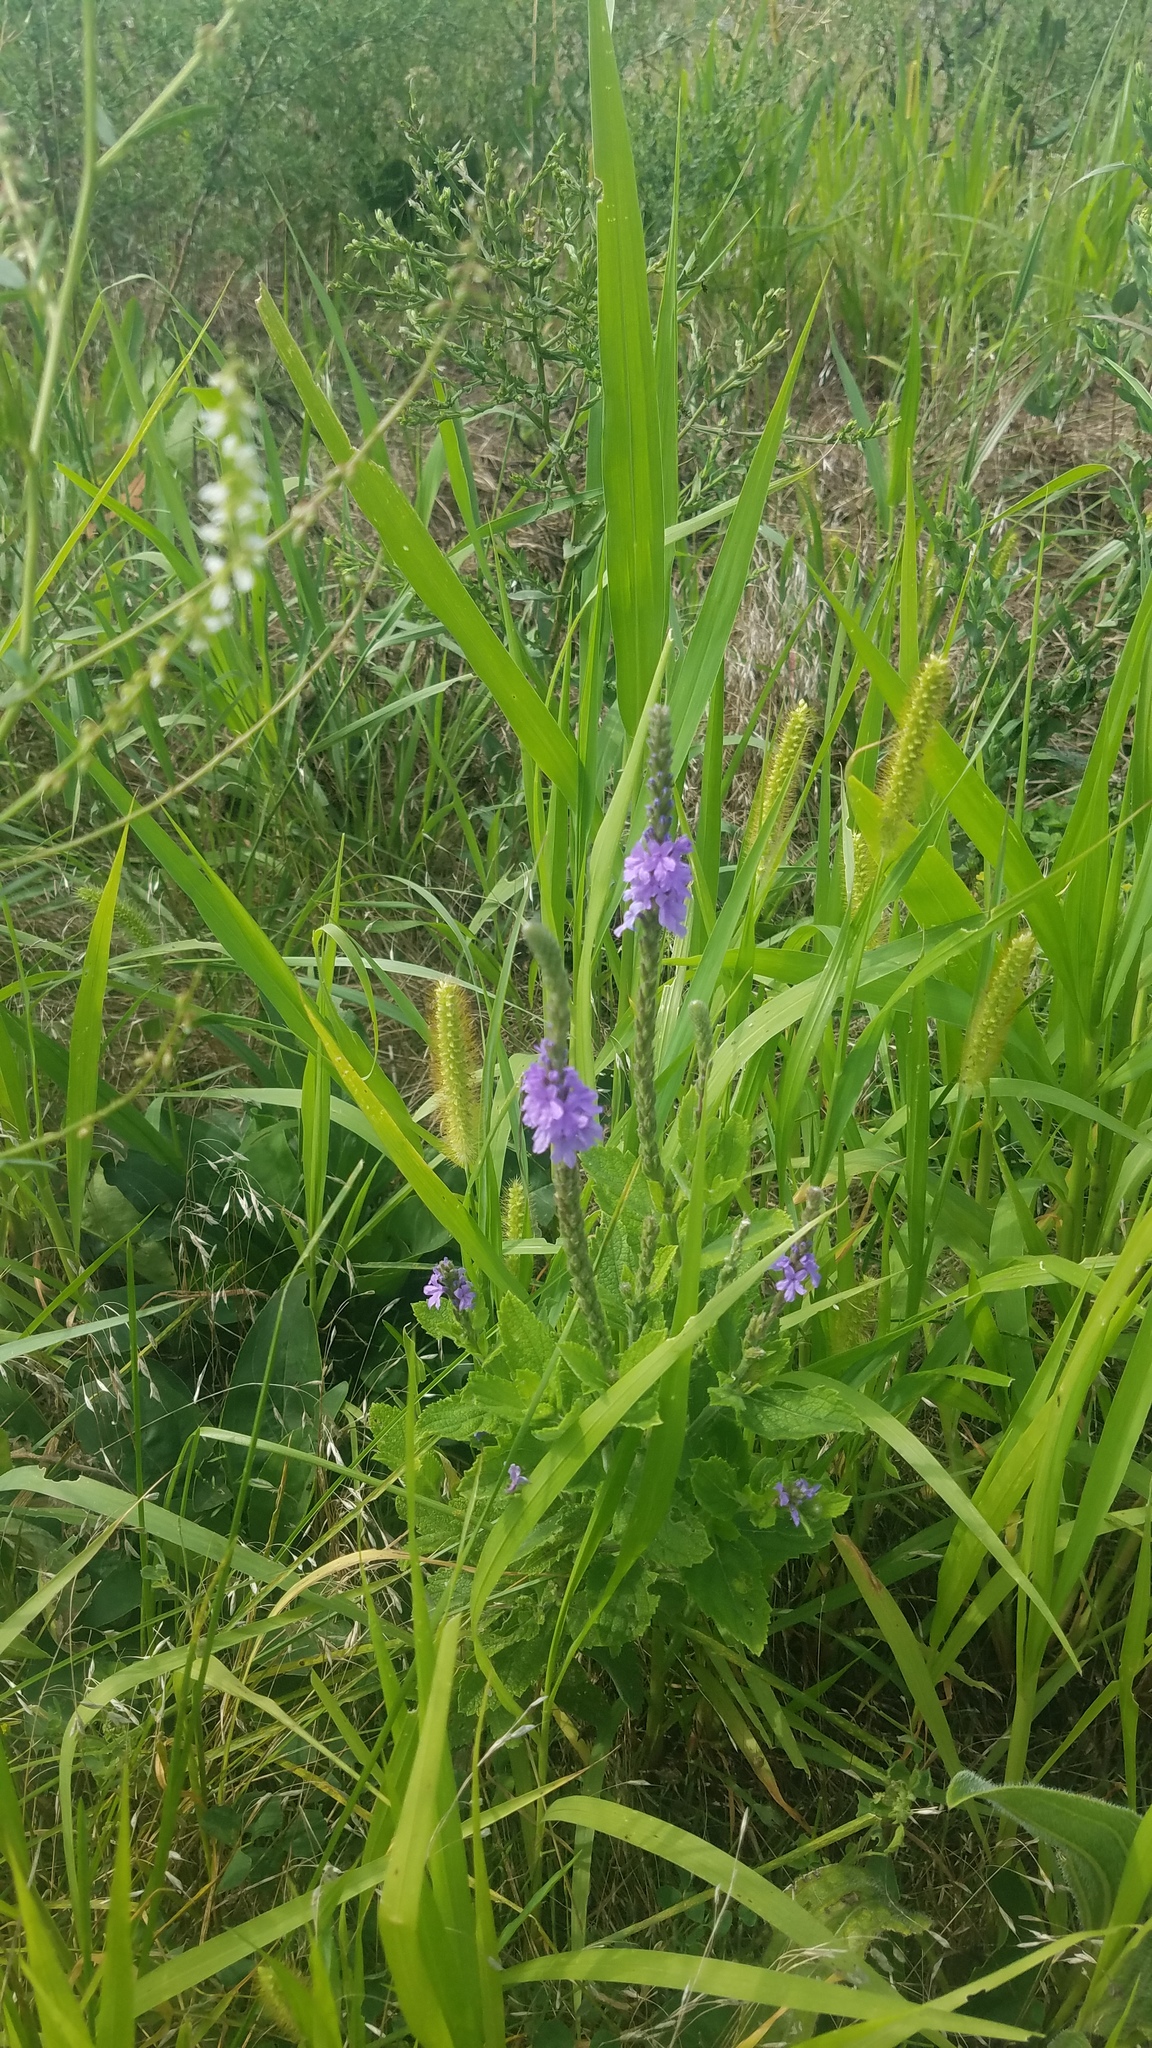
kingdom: Plantae
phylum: Tracheophyta
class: Magnoliopsida
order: Lamiales
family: Verbenaceae
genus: Verbena
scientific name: Verbena stricta
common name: Hoary vervain
